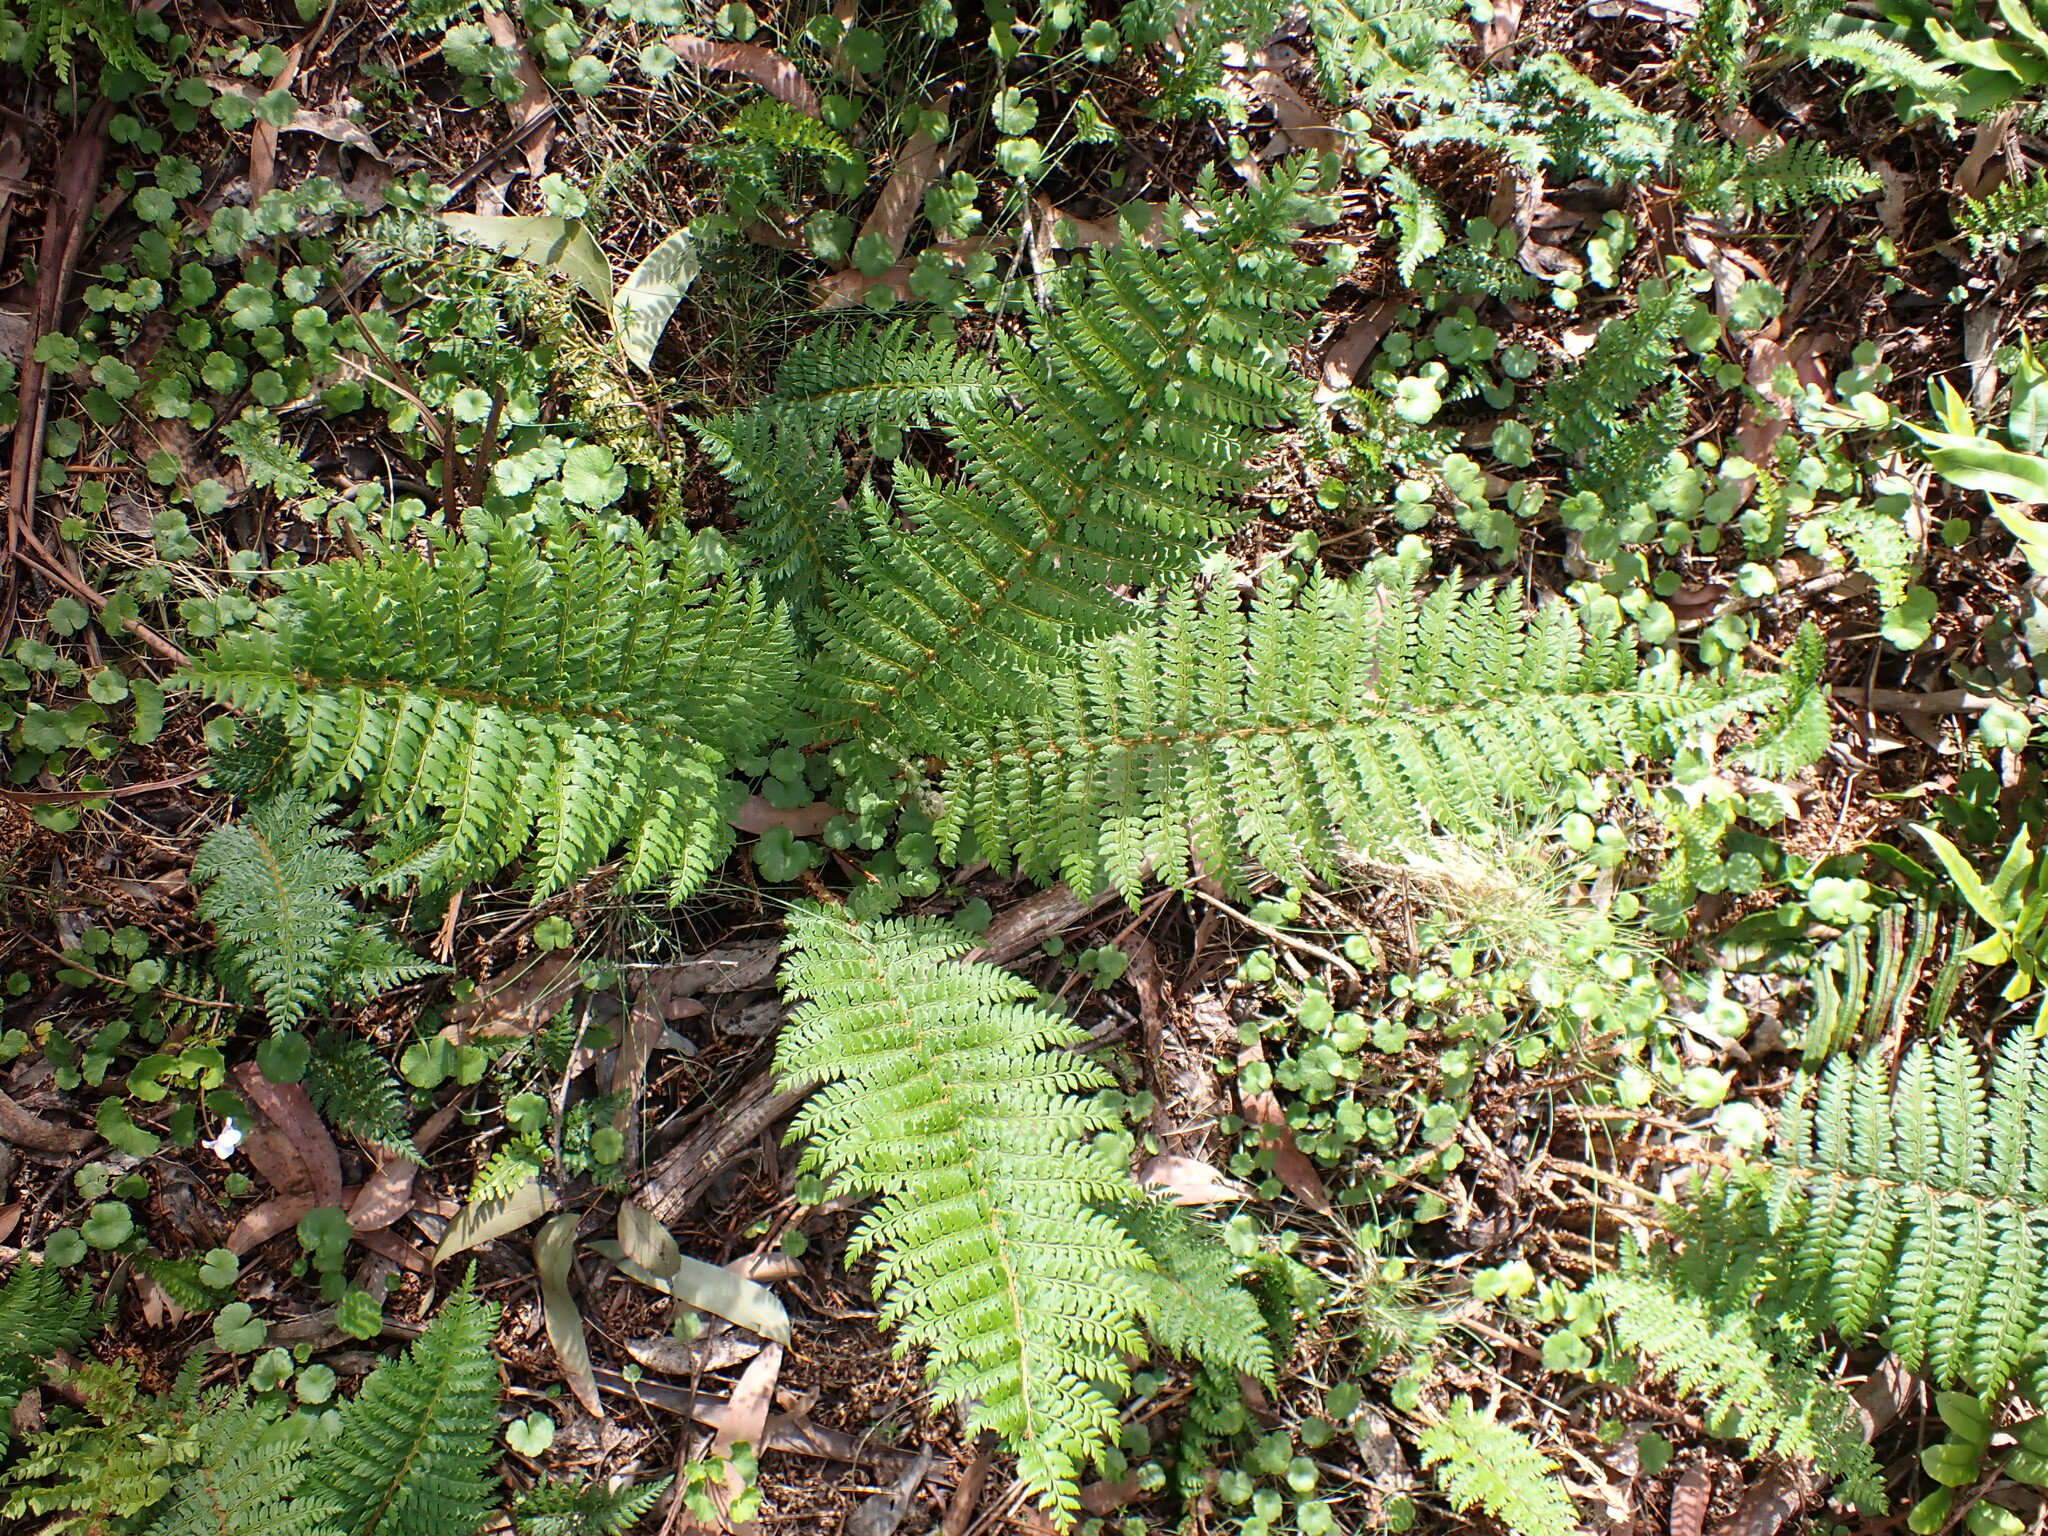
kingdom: Plantae
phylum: Tracheophyta
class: Polypodiopsida
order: Polypodiales
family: Dryopteridaceae
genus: Polystichum
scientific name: Polystichum proliferum
